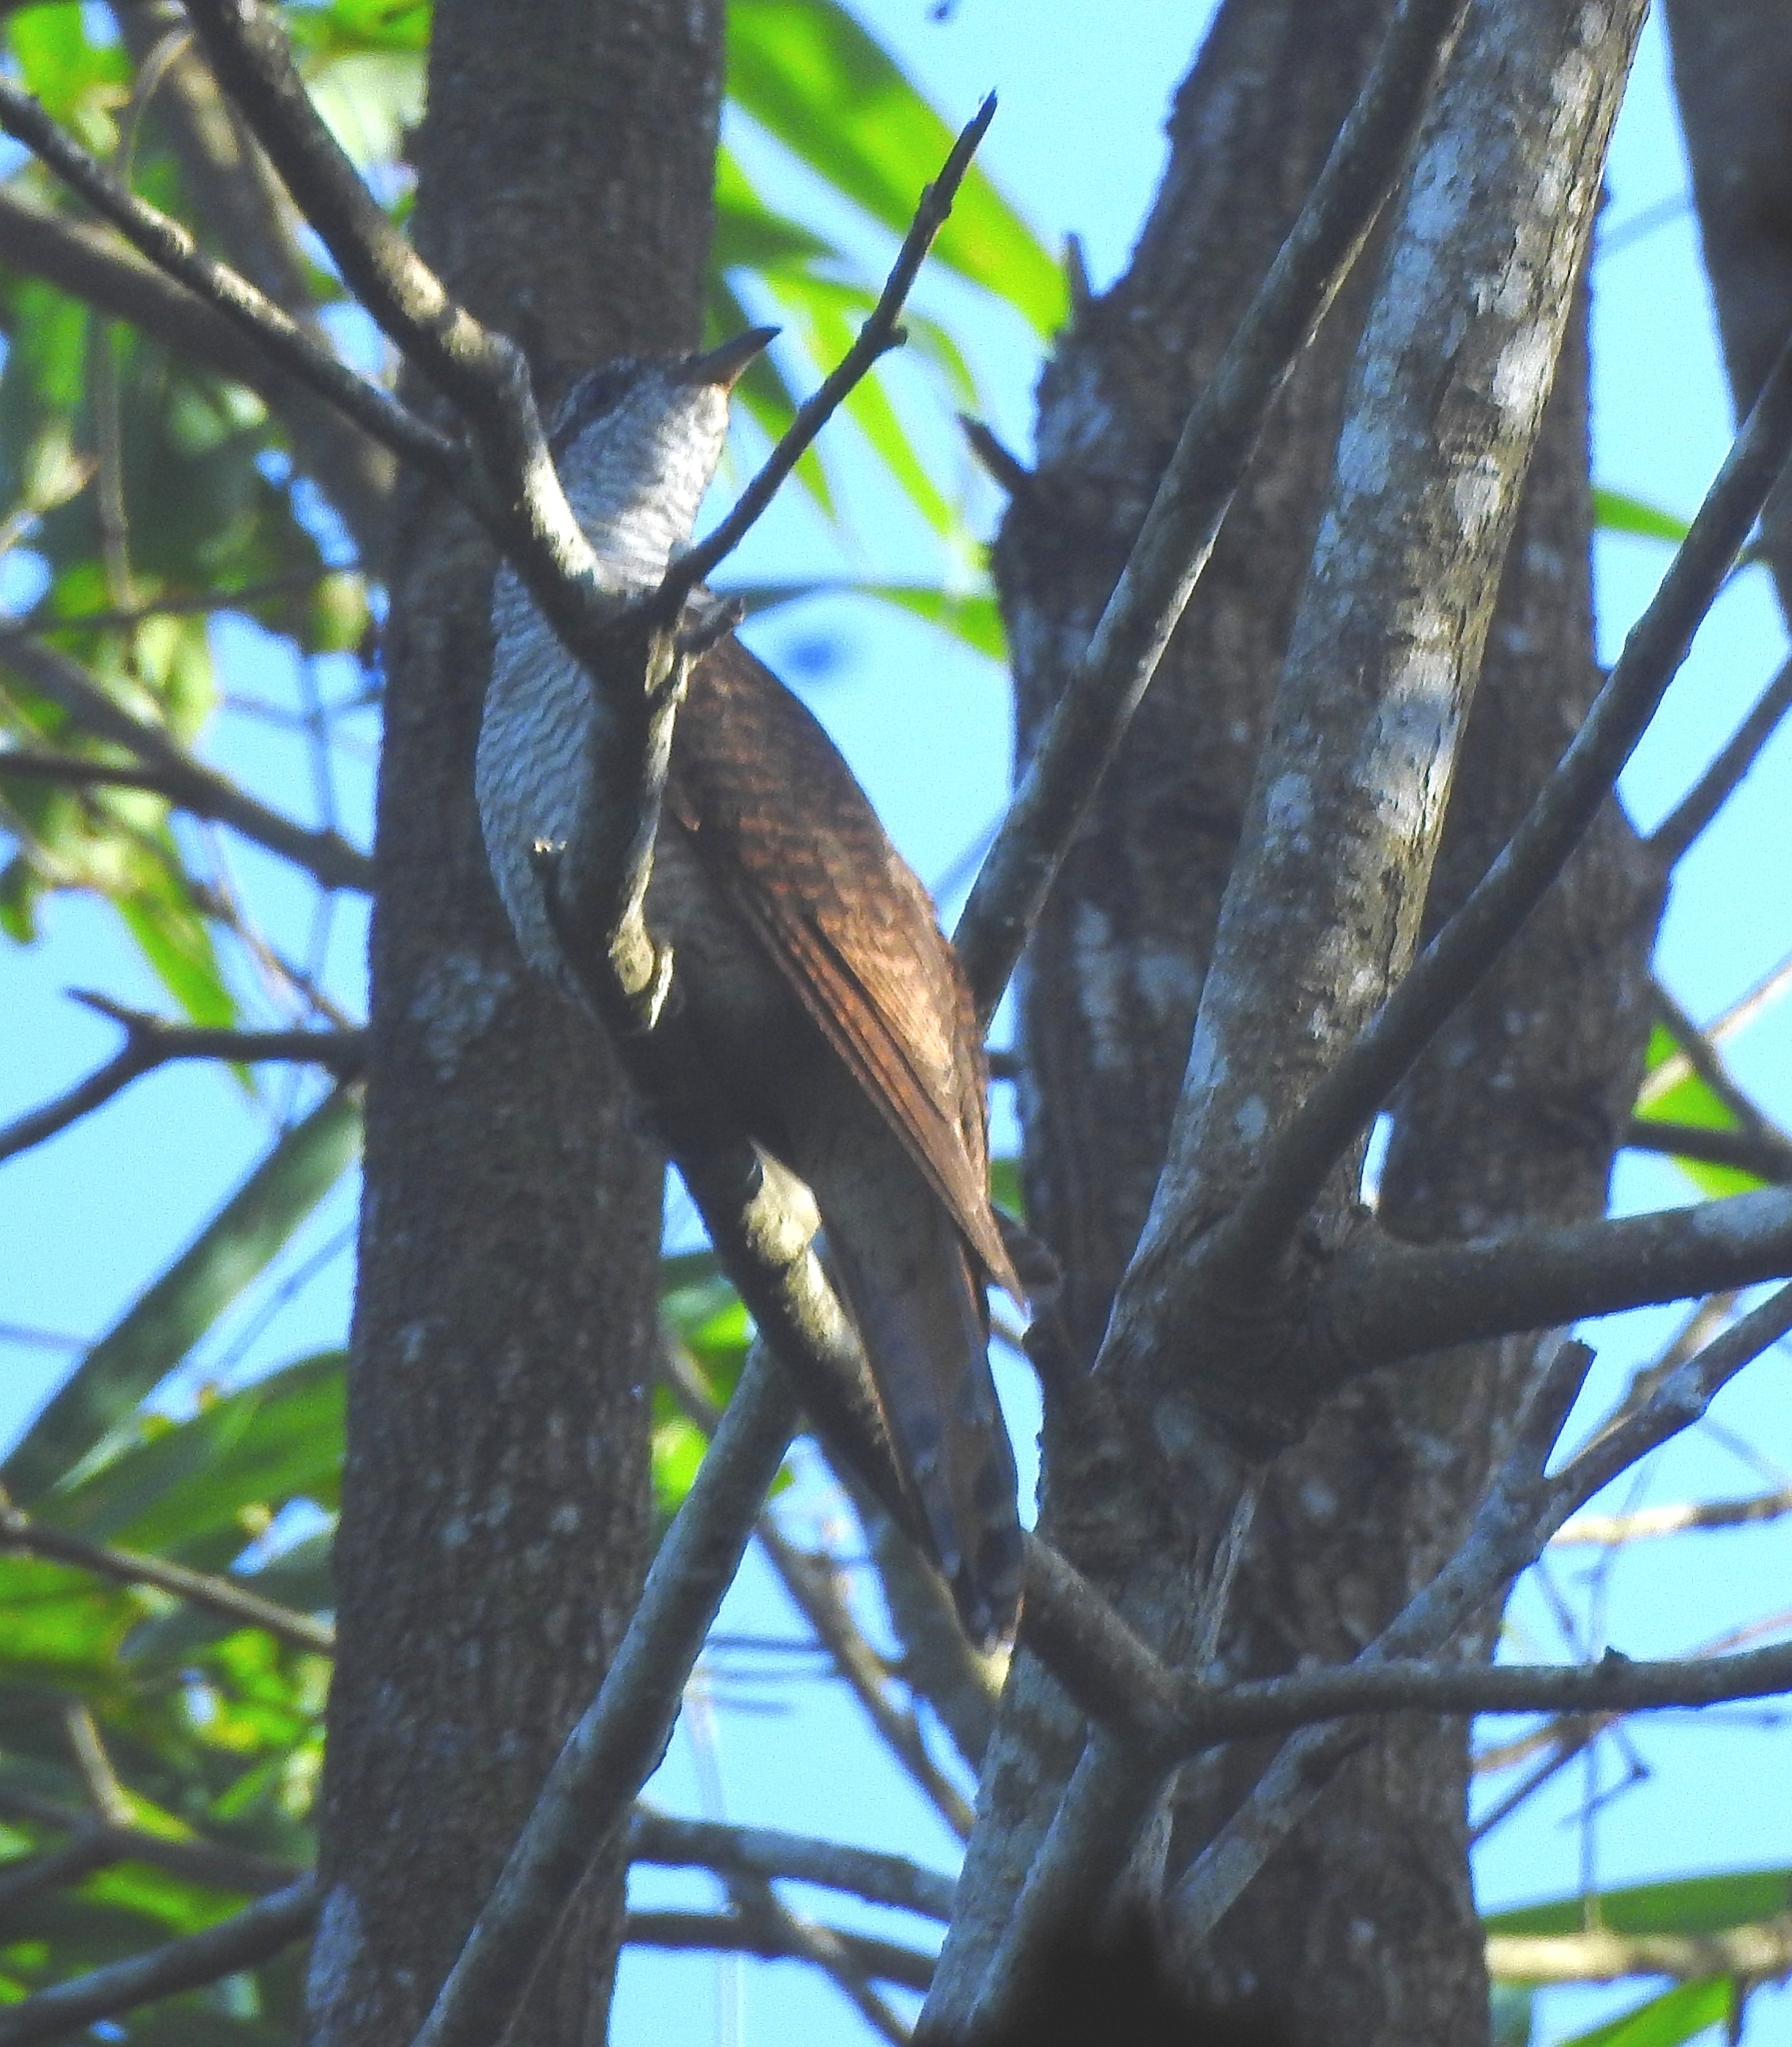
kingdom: Animalia
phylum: Chordata
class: Aves
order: Cuculiformes
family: Cuculidae
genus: Cacomantis
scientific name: Cacomantis sonneratii
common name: Banded bay cuckoo
